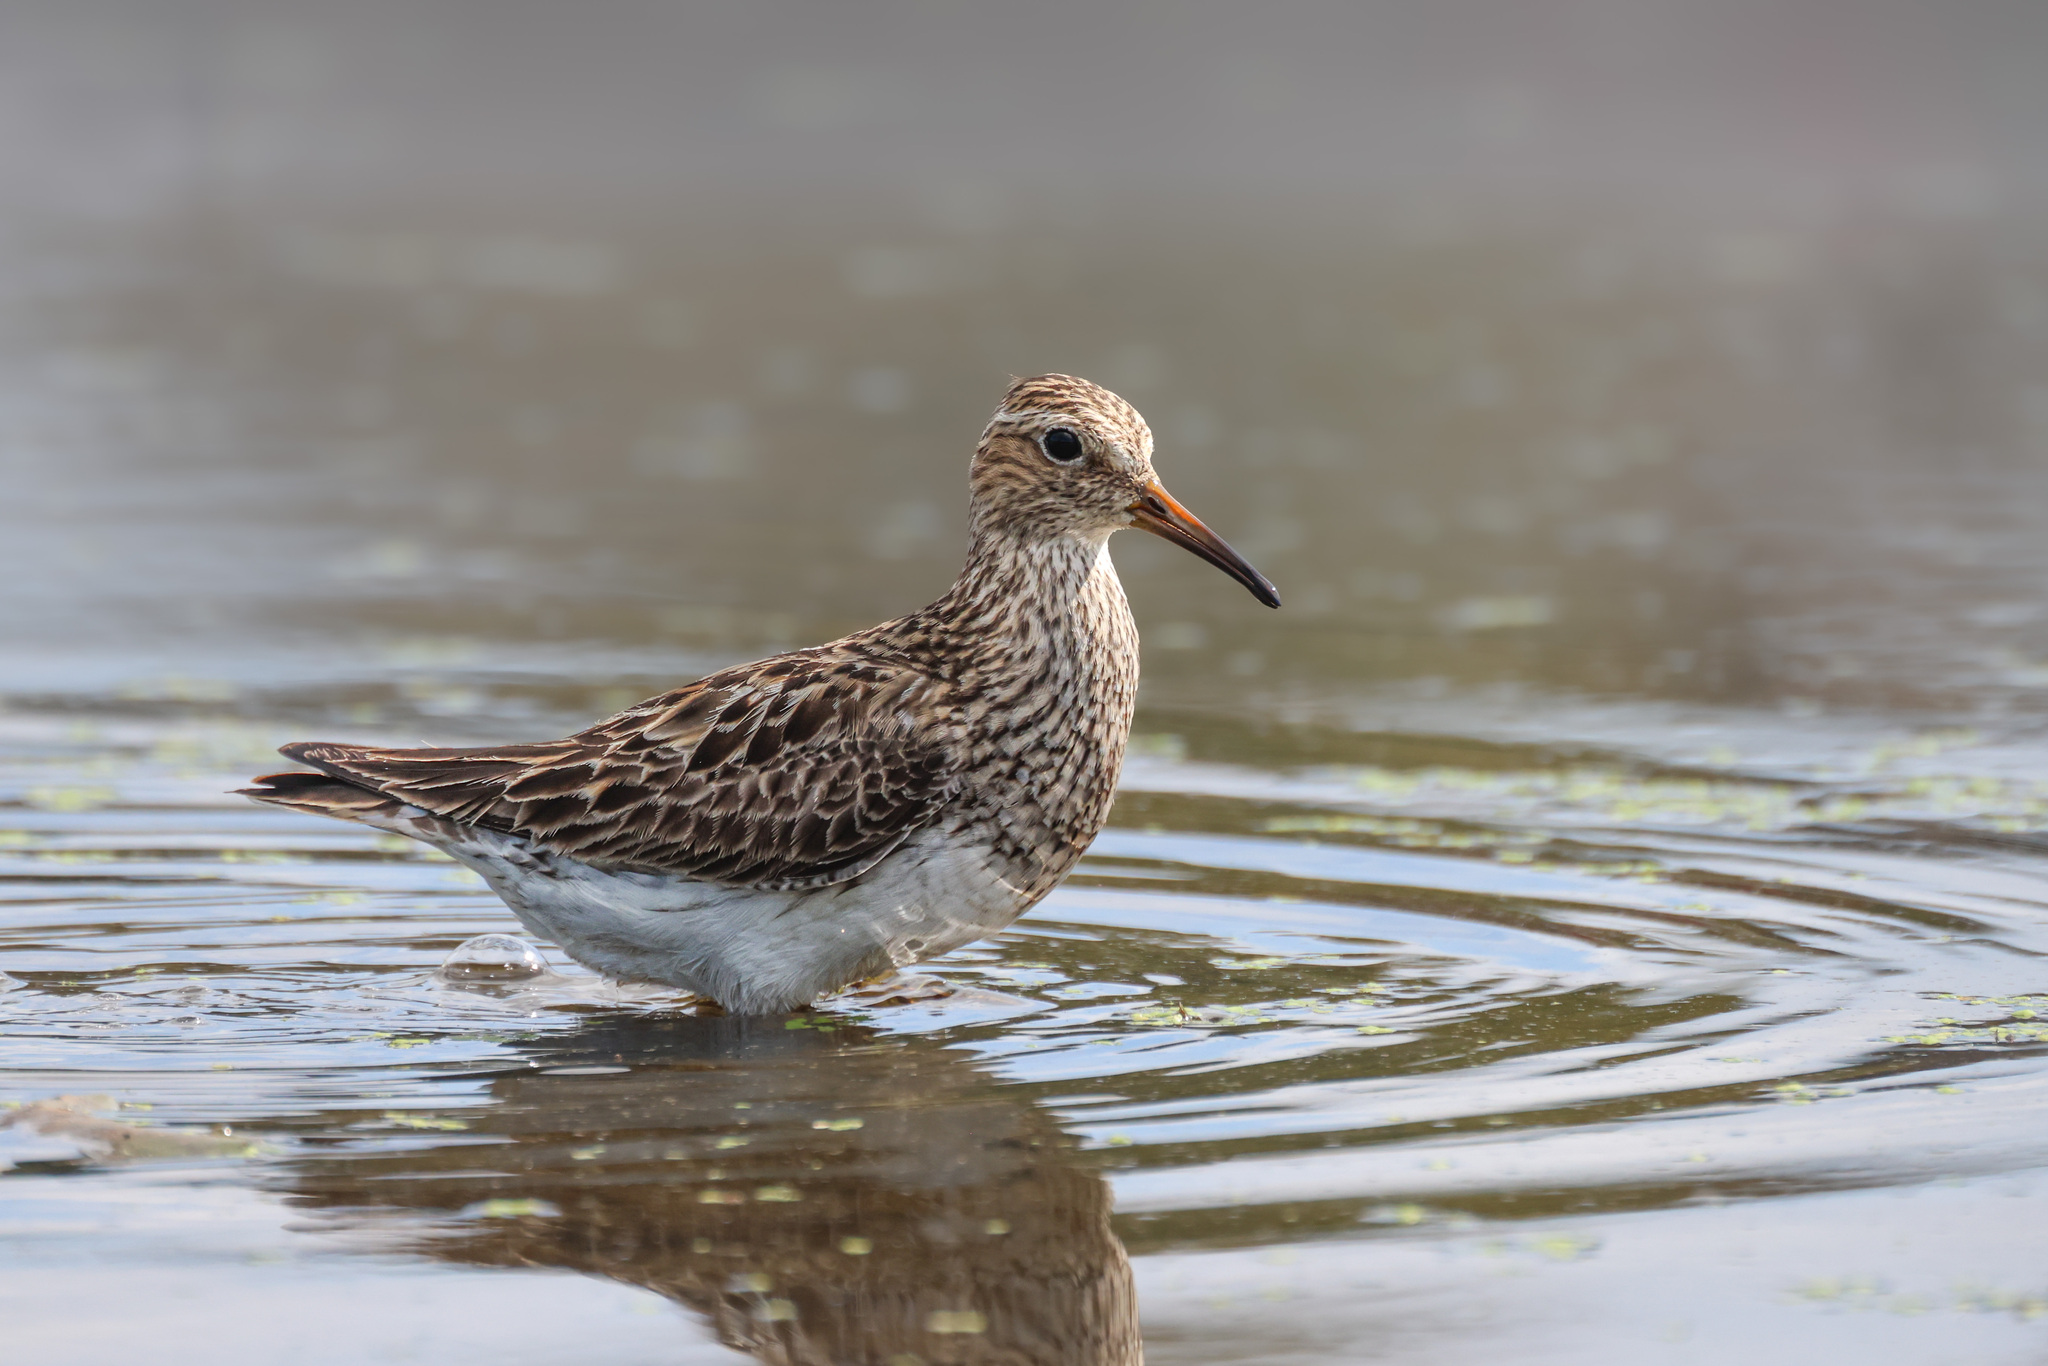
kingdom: Animalia
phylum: Chordata
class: Aves
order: Charadriiformes
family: Scolopacidae
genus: Calidris
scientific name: Calidris melanotos
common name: Pectoral sandpiper
